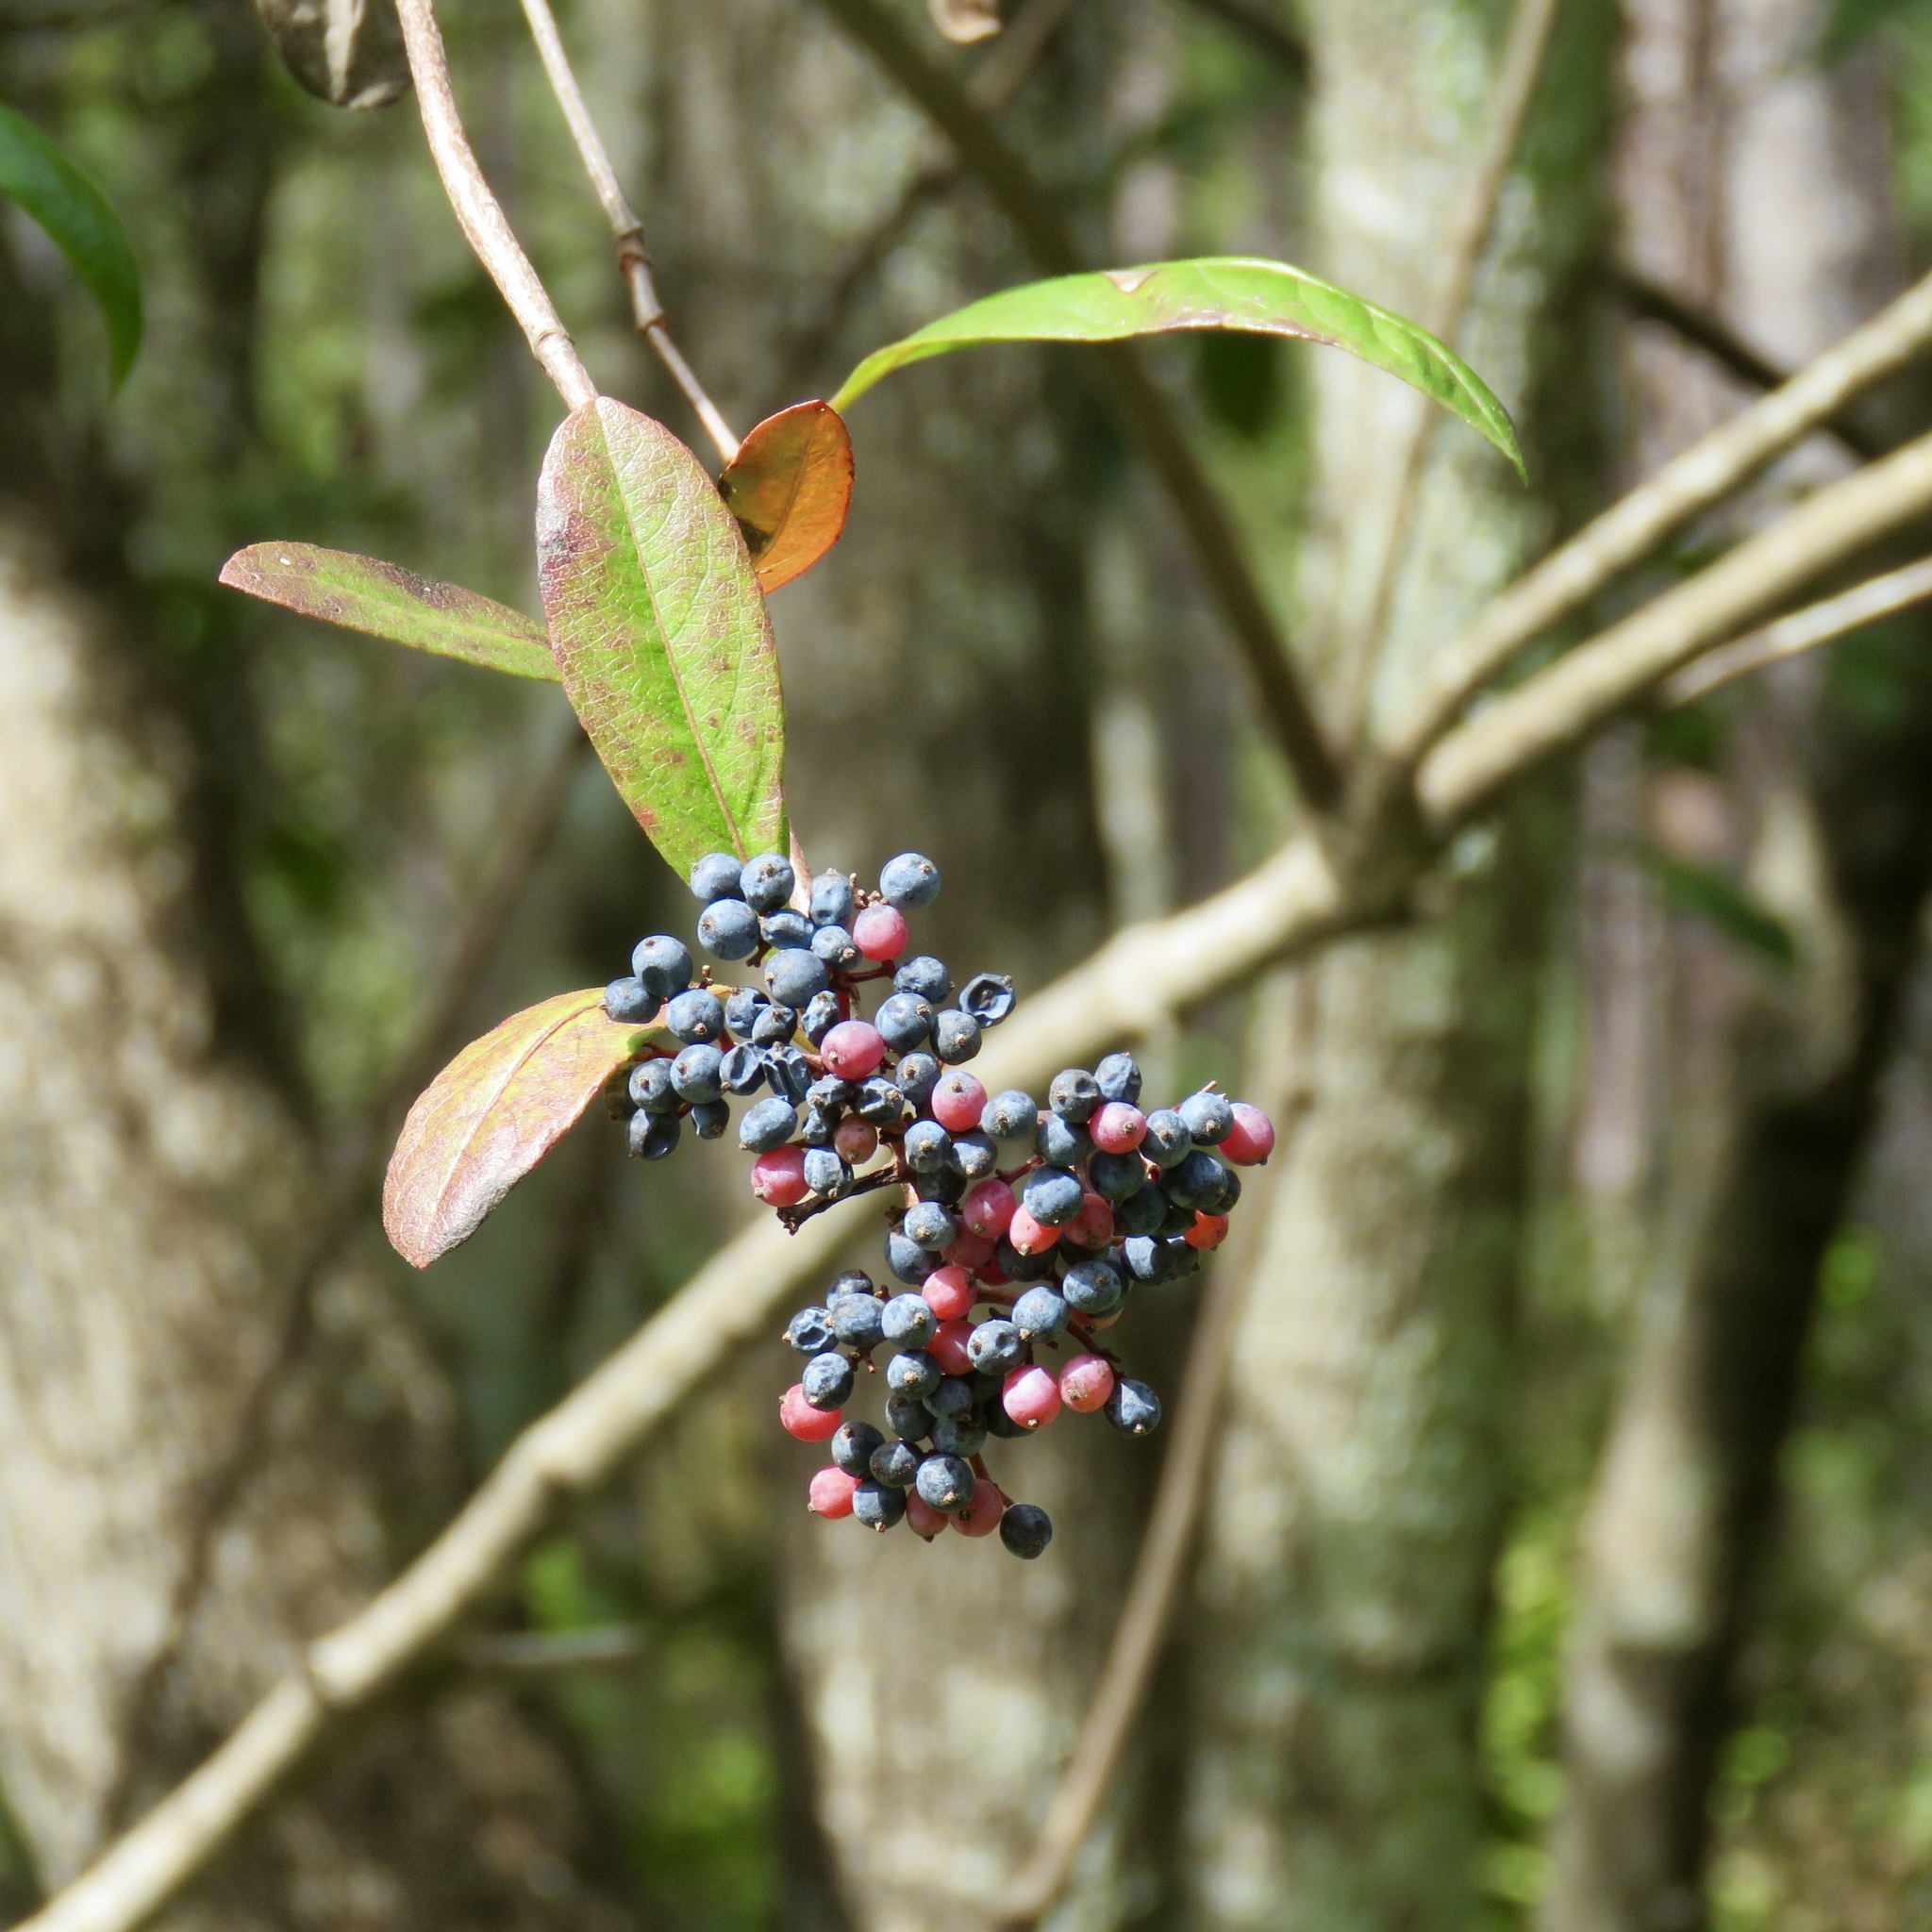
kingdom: Plantae
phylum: Tracheophyta
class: Magnoliopsida
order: Dipsacales
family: Viburnaceae
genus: Viburnum
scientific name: Viburnum nudum
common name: Possum haw
